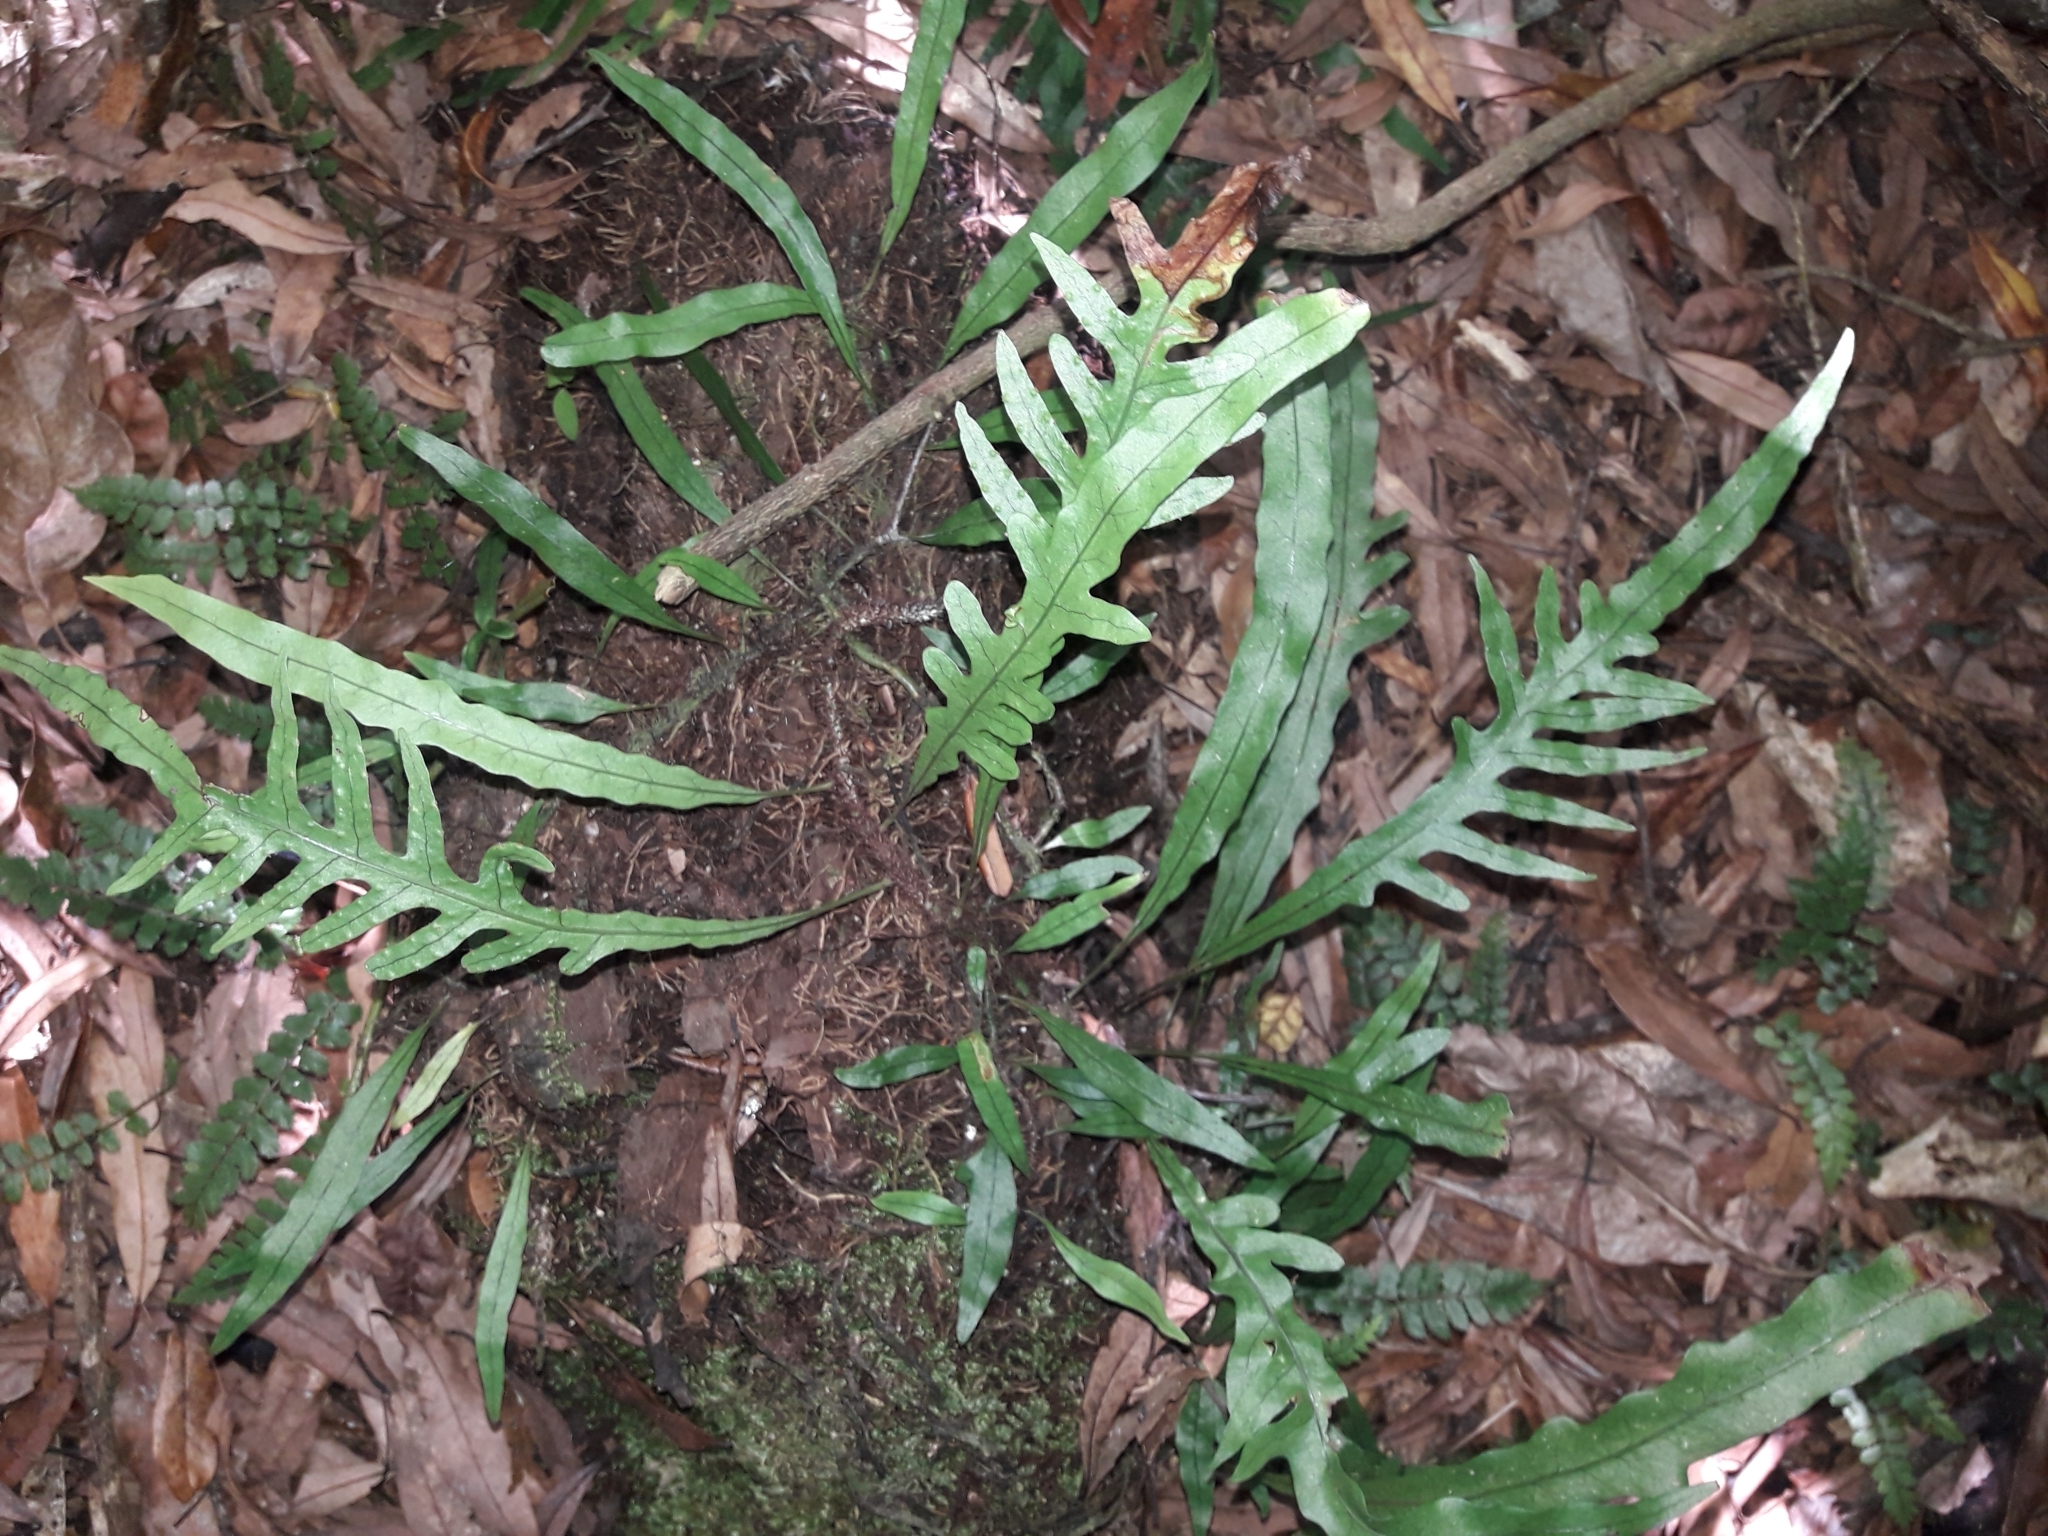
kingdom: Plantae
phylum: Tracheophyta
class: Polypodiopsida
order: Polypodiales
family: Polypodiaceae
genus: Lecanopteris
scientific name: Lecanopteris scandens
